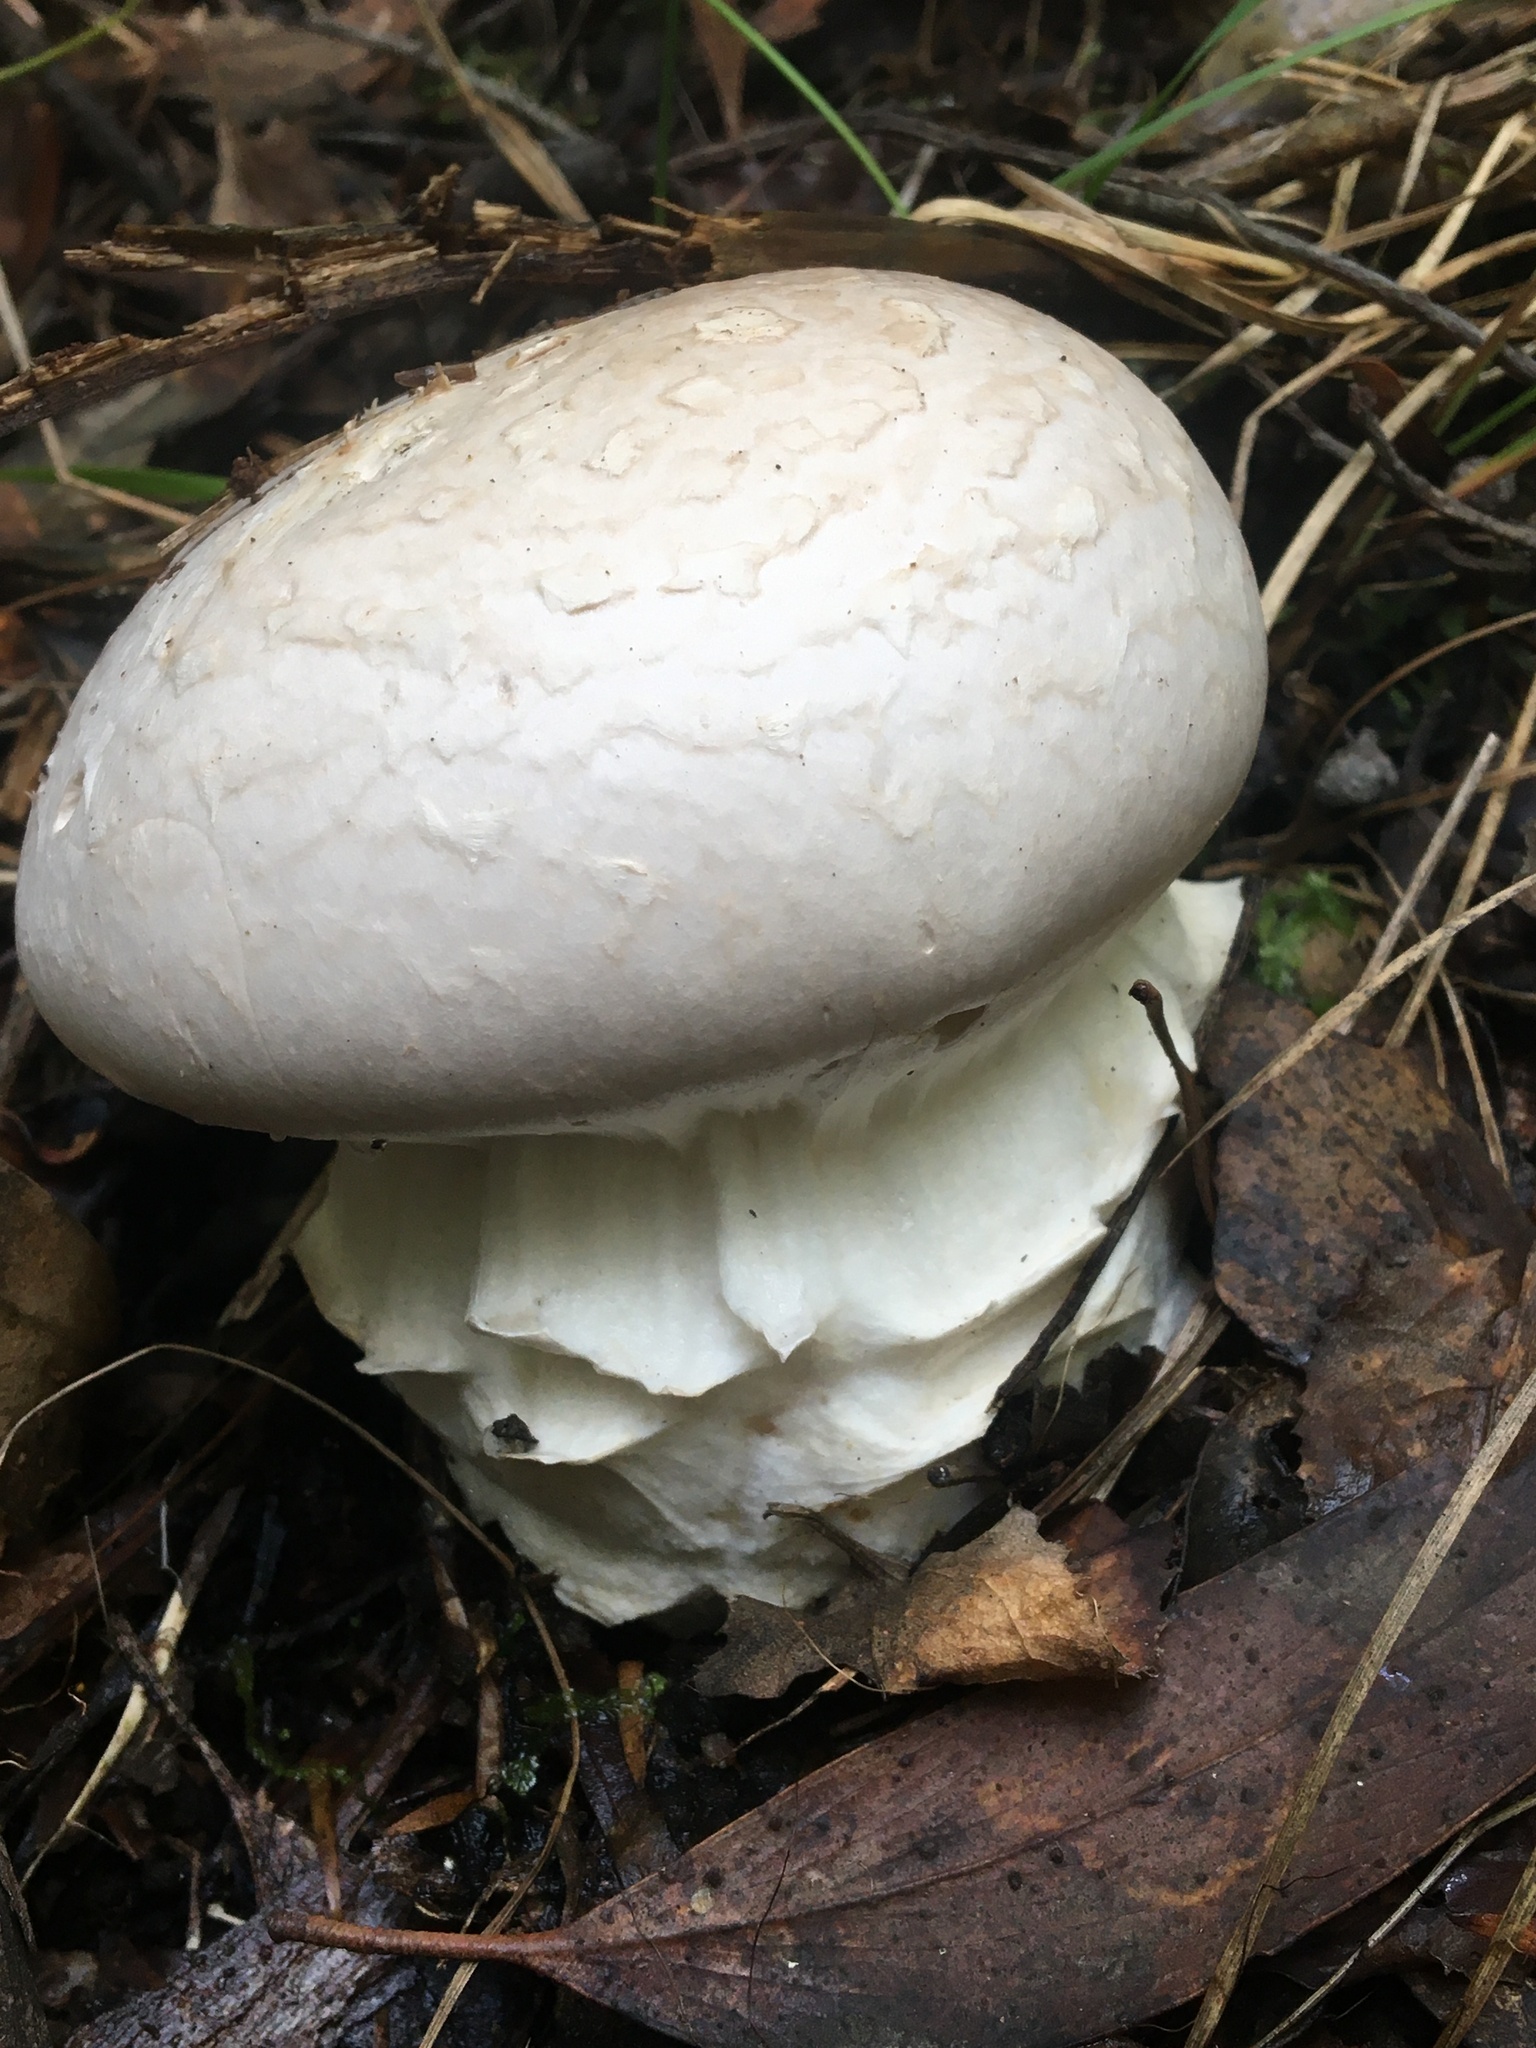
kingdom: Fungi
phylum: Basidiomycota
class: Agaricomycetes
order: Agaricales
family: Cortinariaceae
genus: Austrocortinarius
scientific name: Austrocortinarius australiensis
